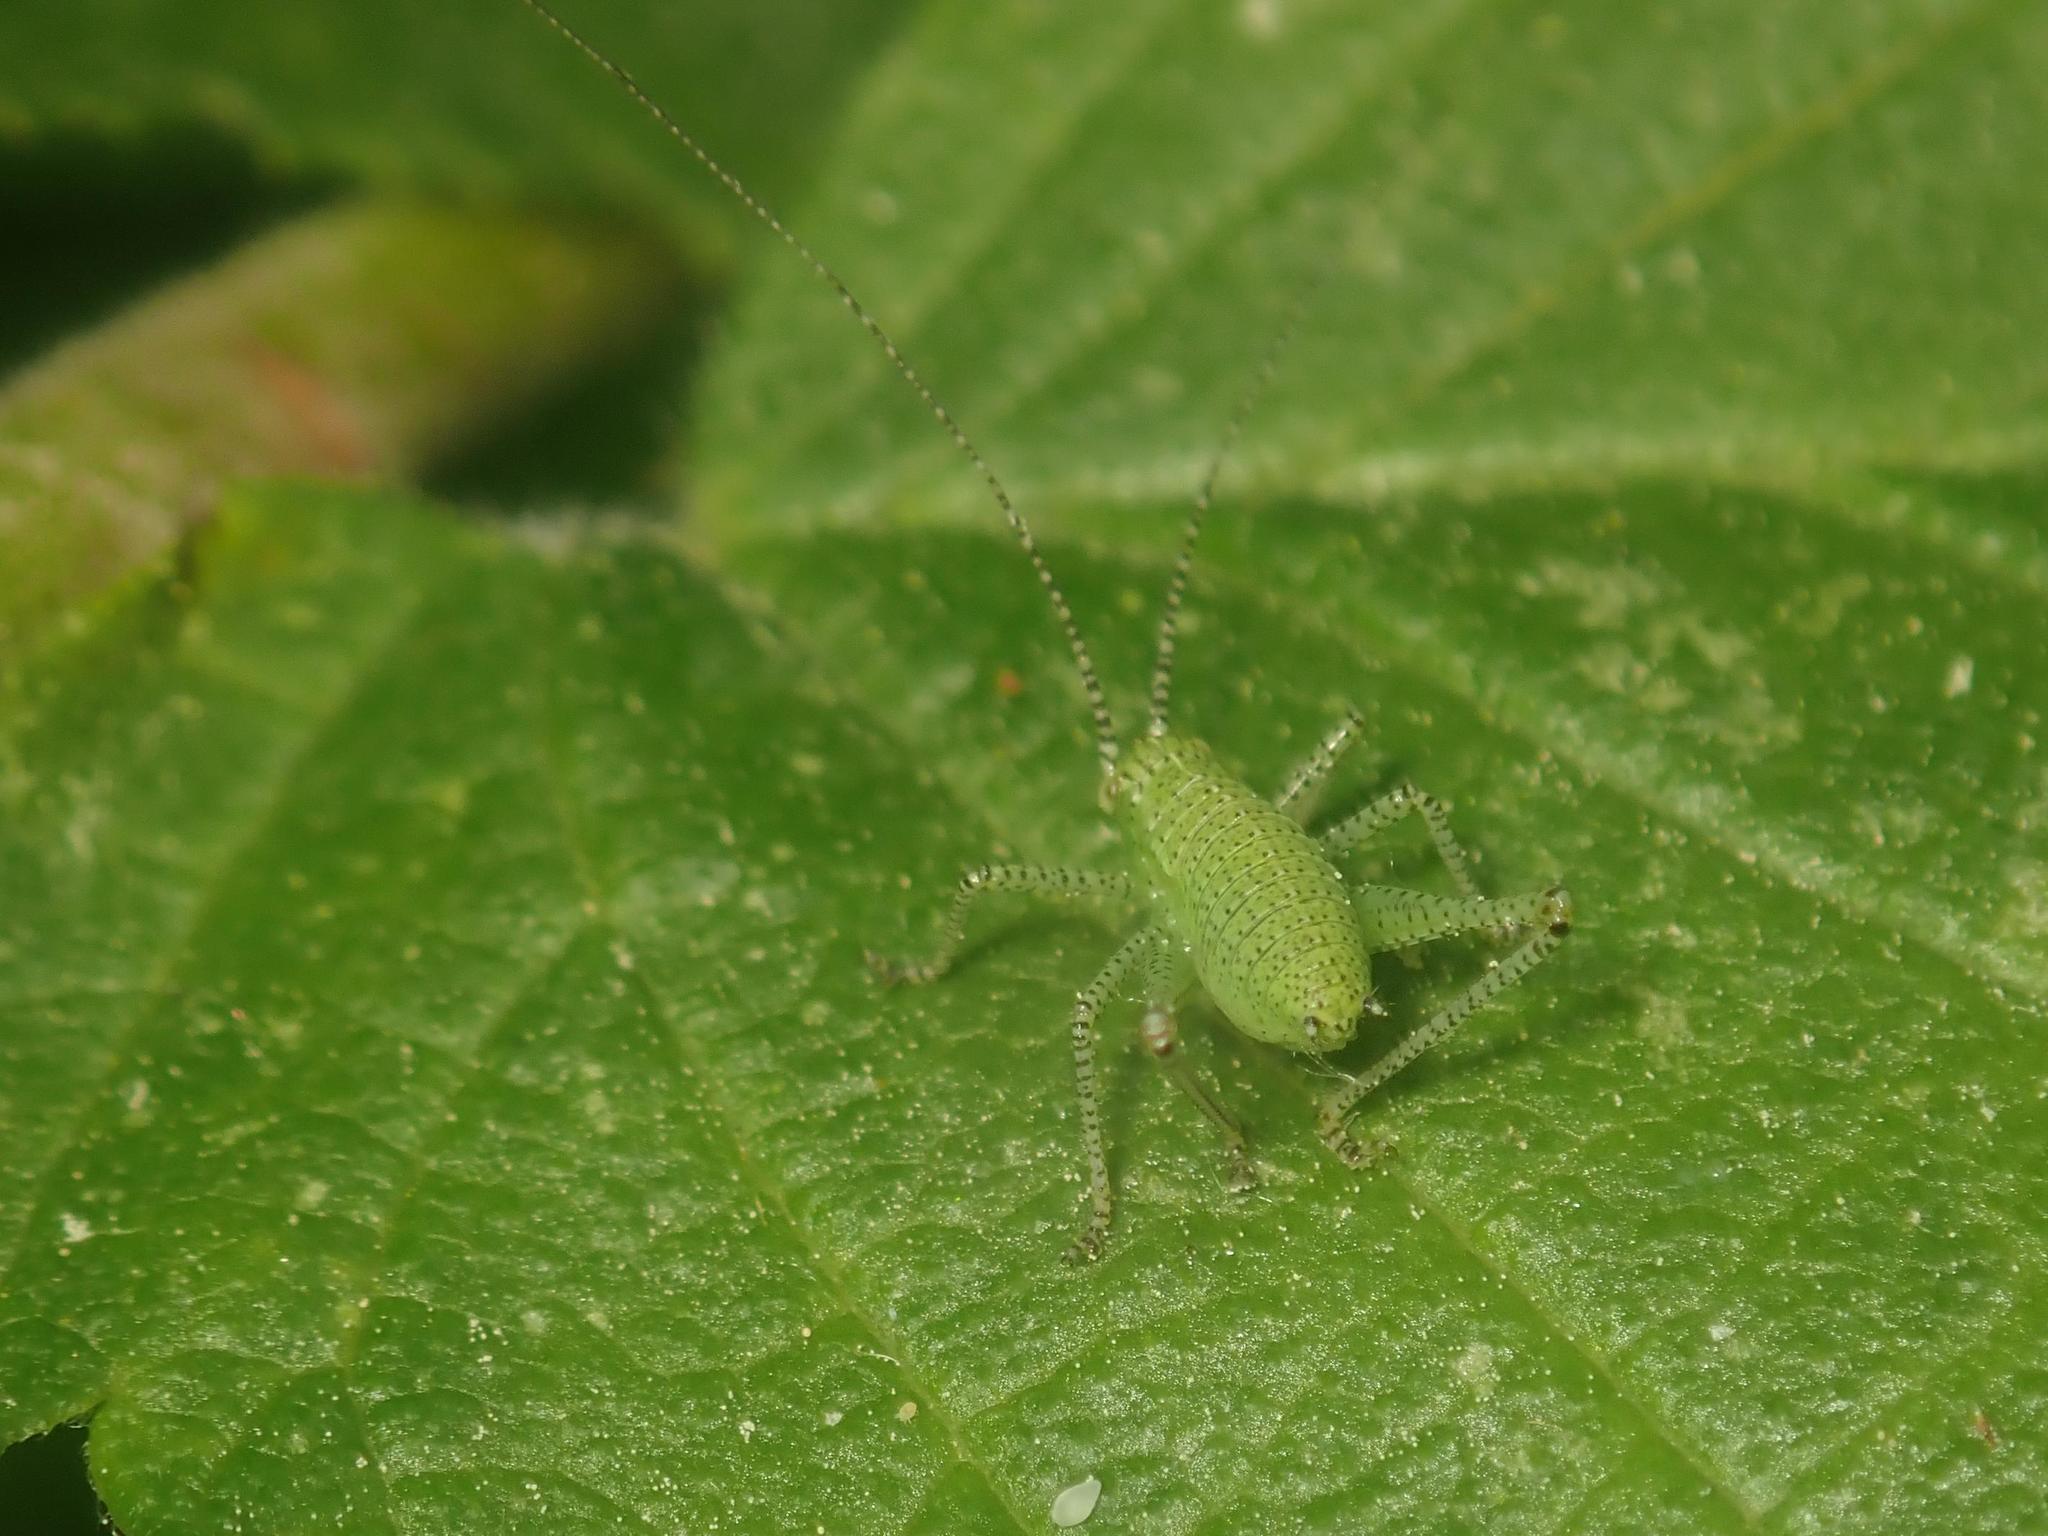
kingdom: Animalia
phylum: Arthropoda
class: Insecta
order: Orthoptera
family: Tettigoniidae
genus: Leptophyes
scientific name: Leptophyes punctatissima
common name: Speckled bush-cricket
